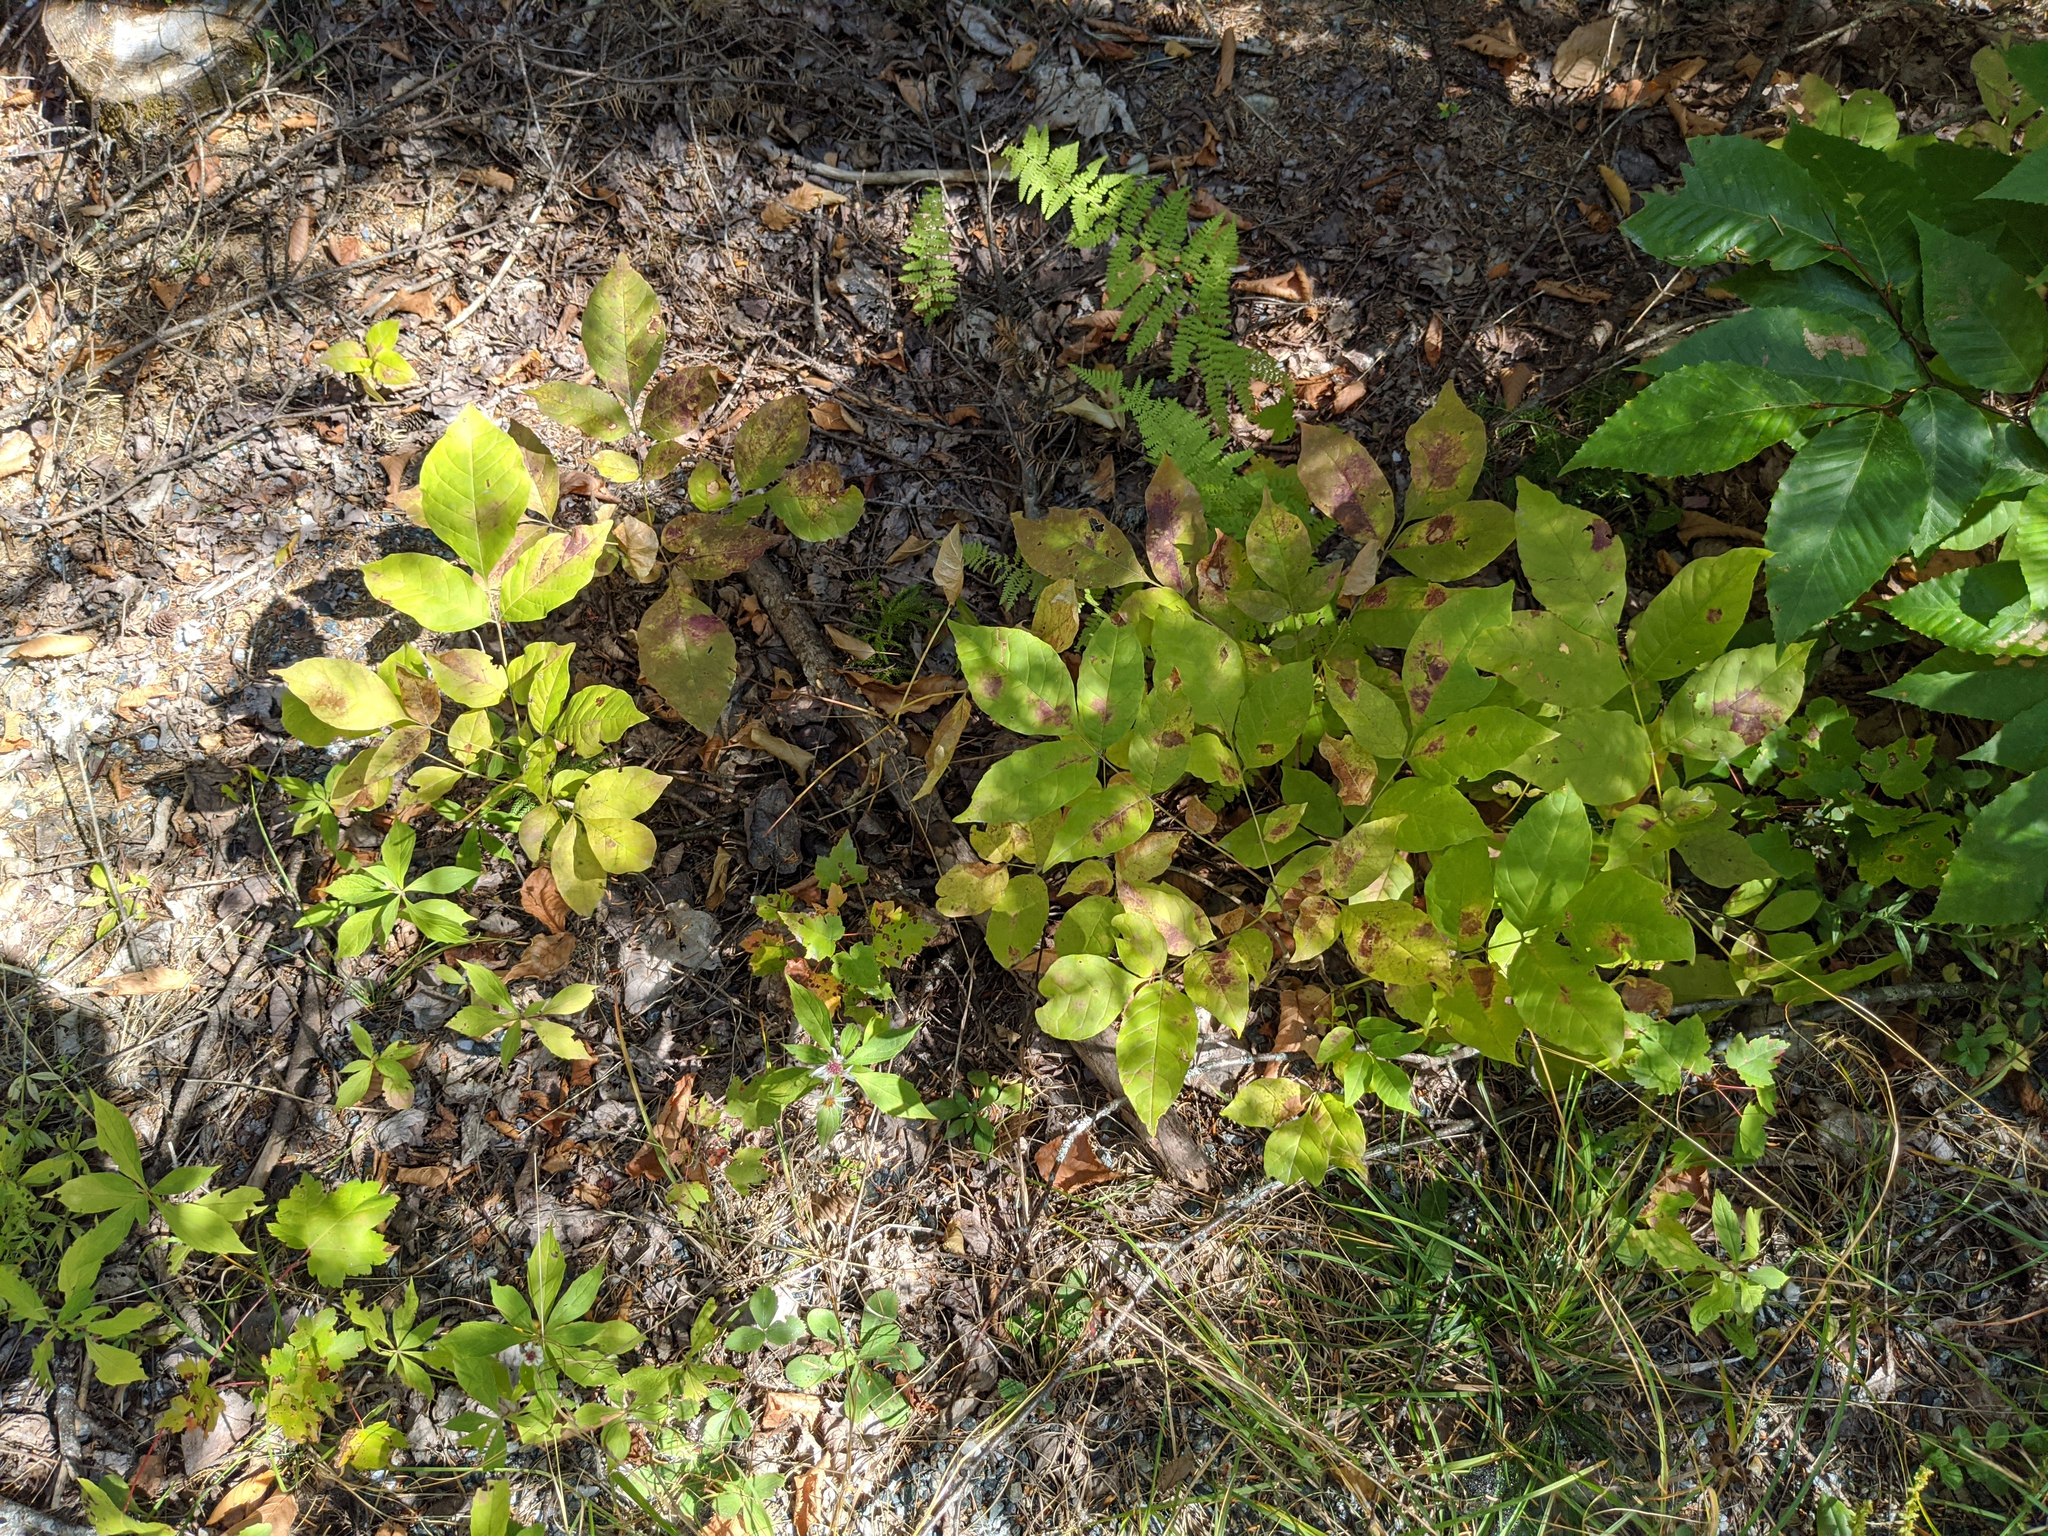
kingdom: Plantae
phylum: Tracheophyta
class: Magnoliopsida
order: Fagales
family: Fagaceae
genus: Fagus
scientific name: Fagus grandifolia
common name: American beech
